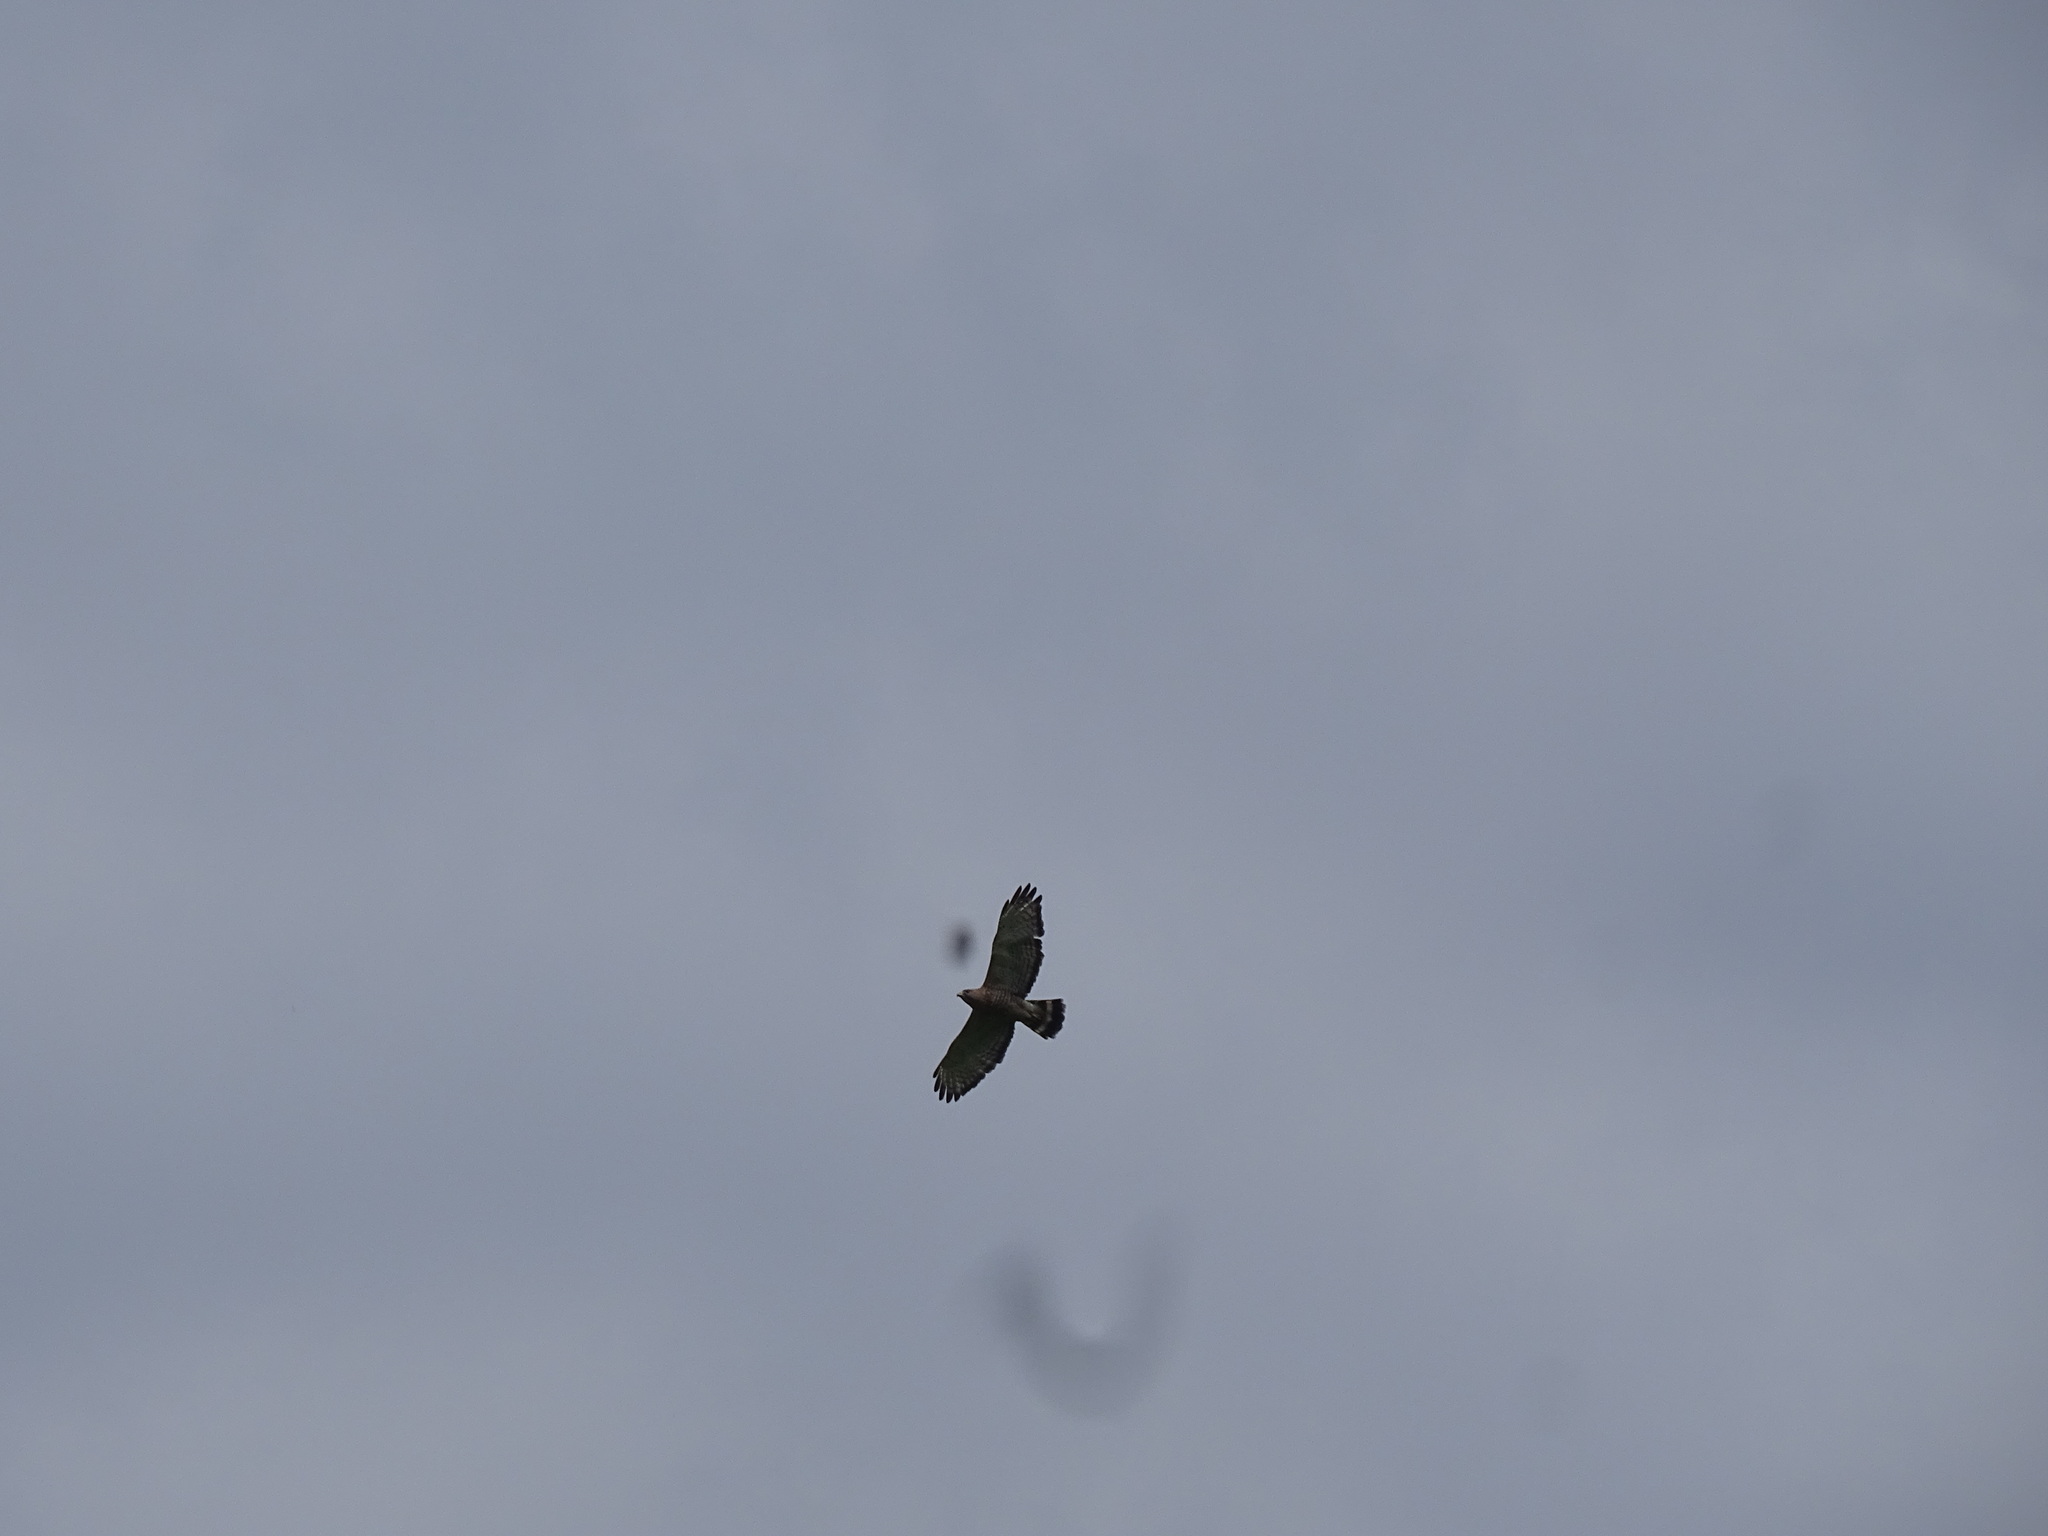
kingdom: Animalia
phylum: Chordata
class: Aves
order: Accipitriformes
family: Accipitridae
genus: Buteo
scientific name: Buteo platypterus
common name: Broad-winged hawk
